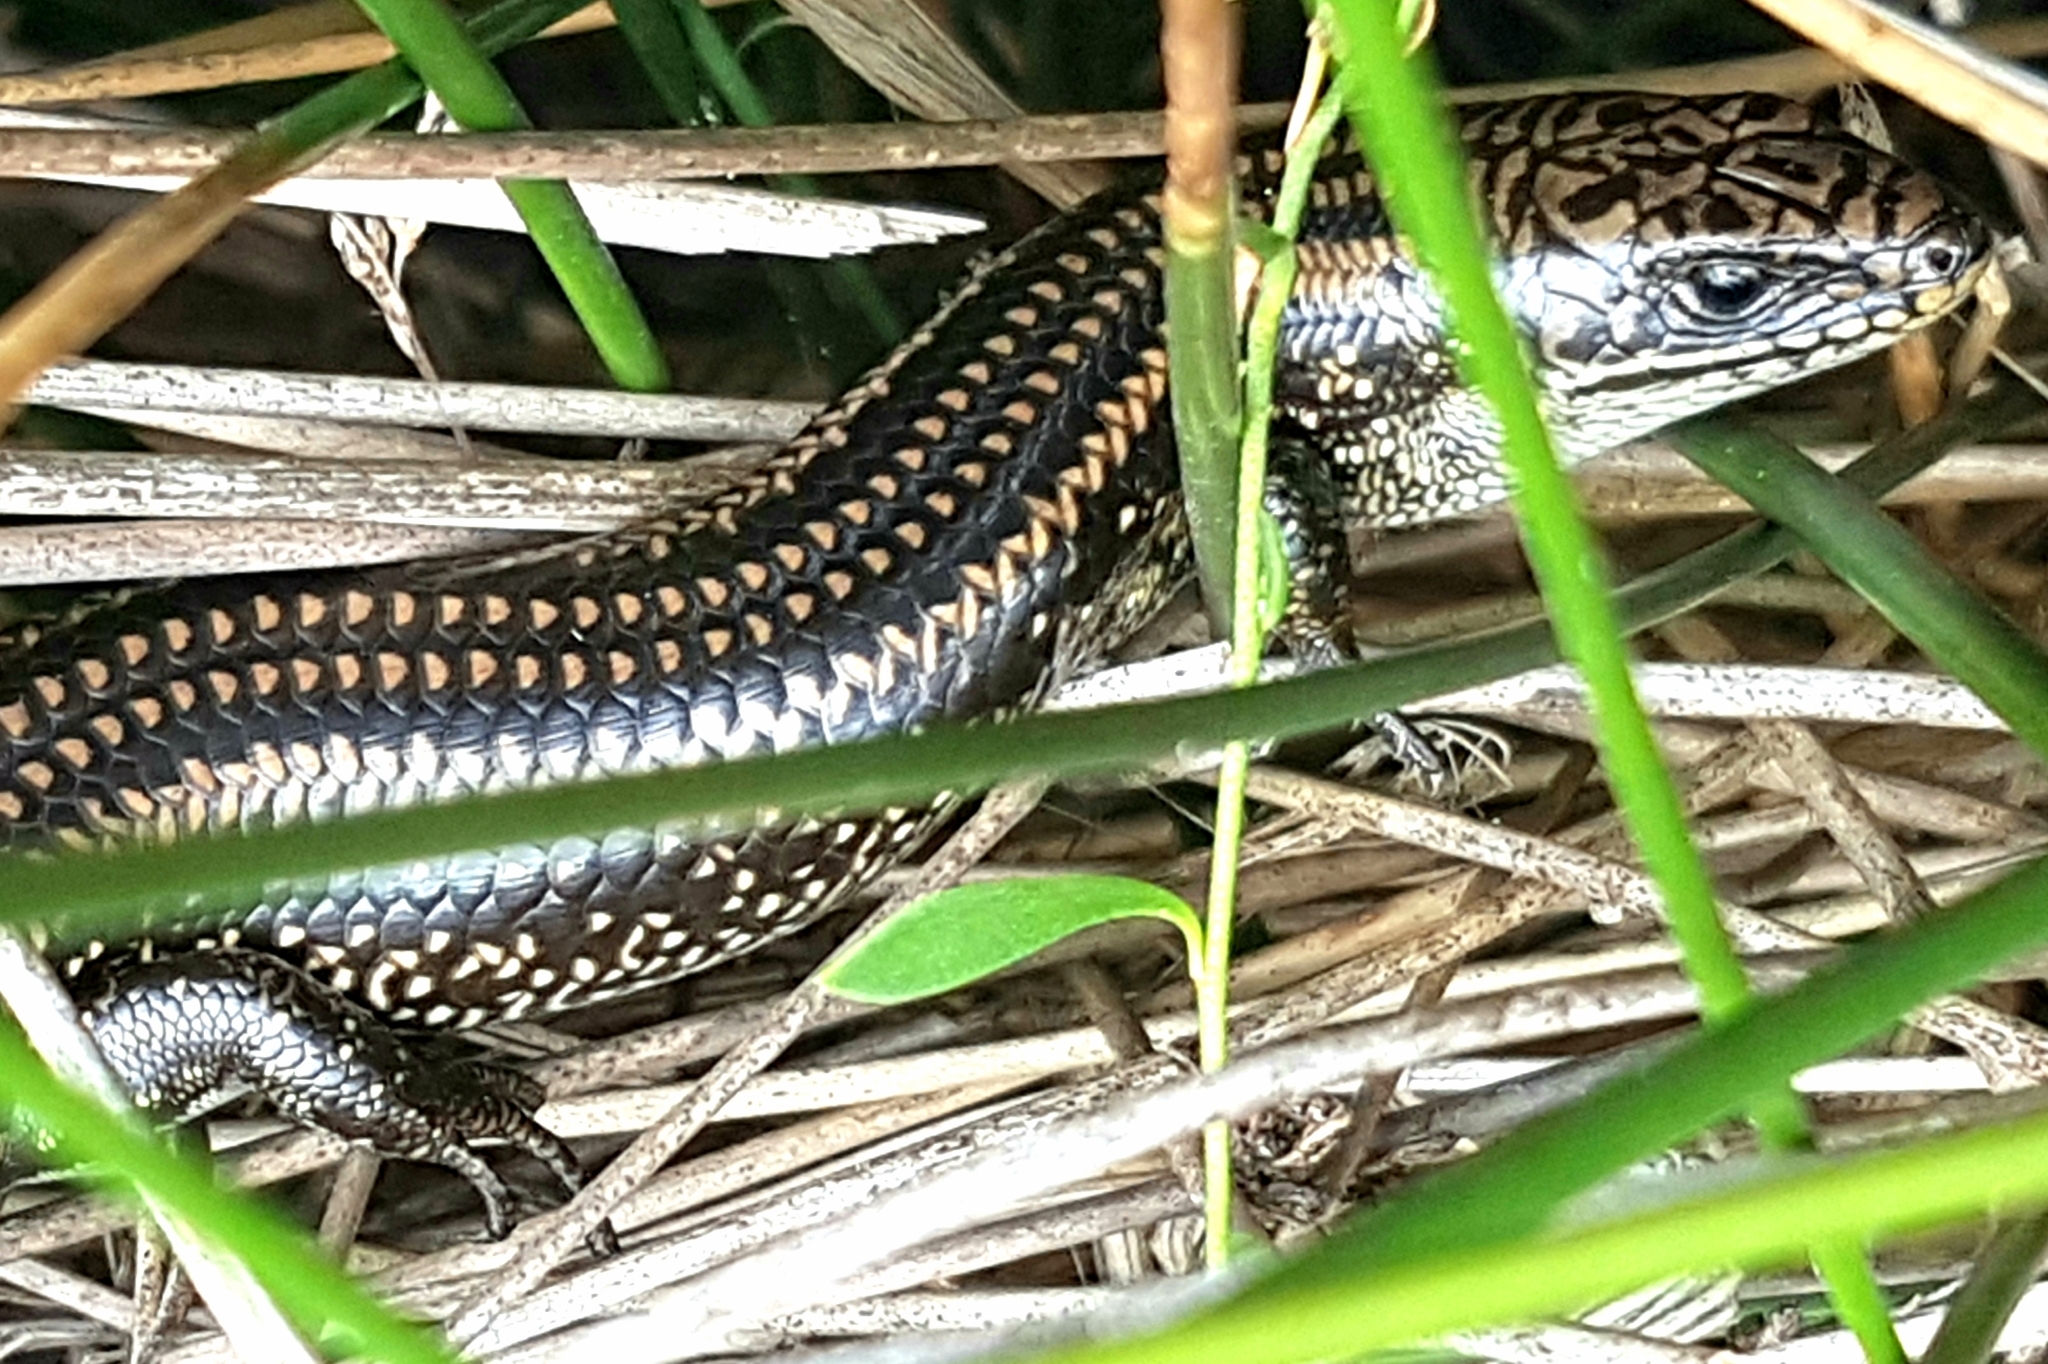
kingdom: Animalia
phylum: Chordata
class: Squamata
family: Scincidae
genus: Lissolepis
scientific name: Lissolepis coventryi
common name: Eastern mourning skink
